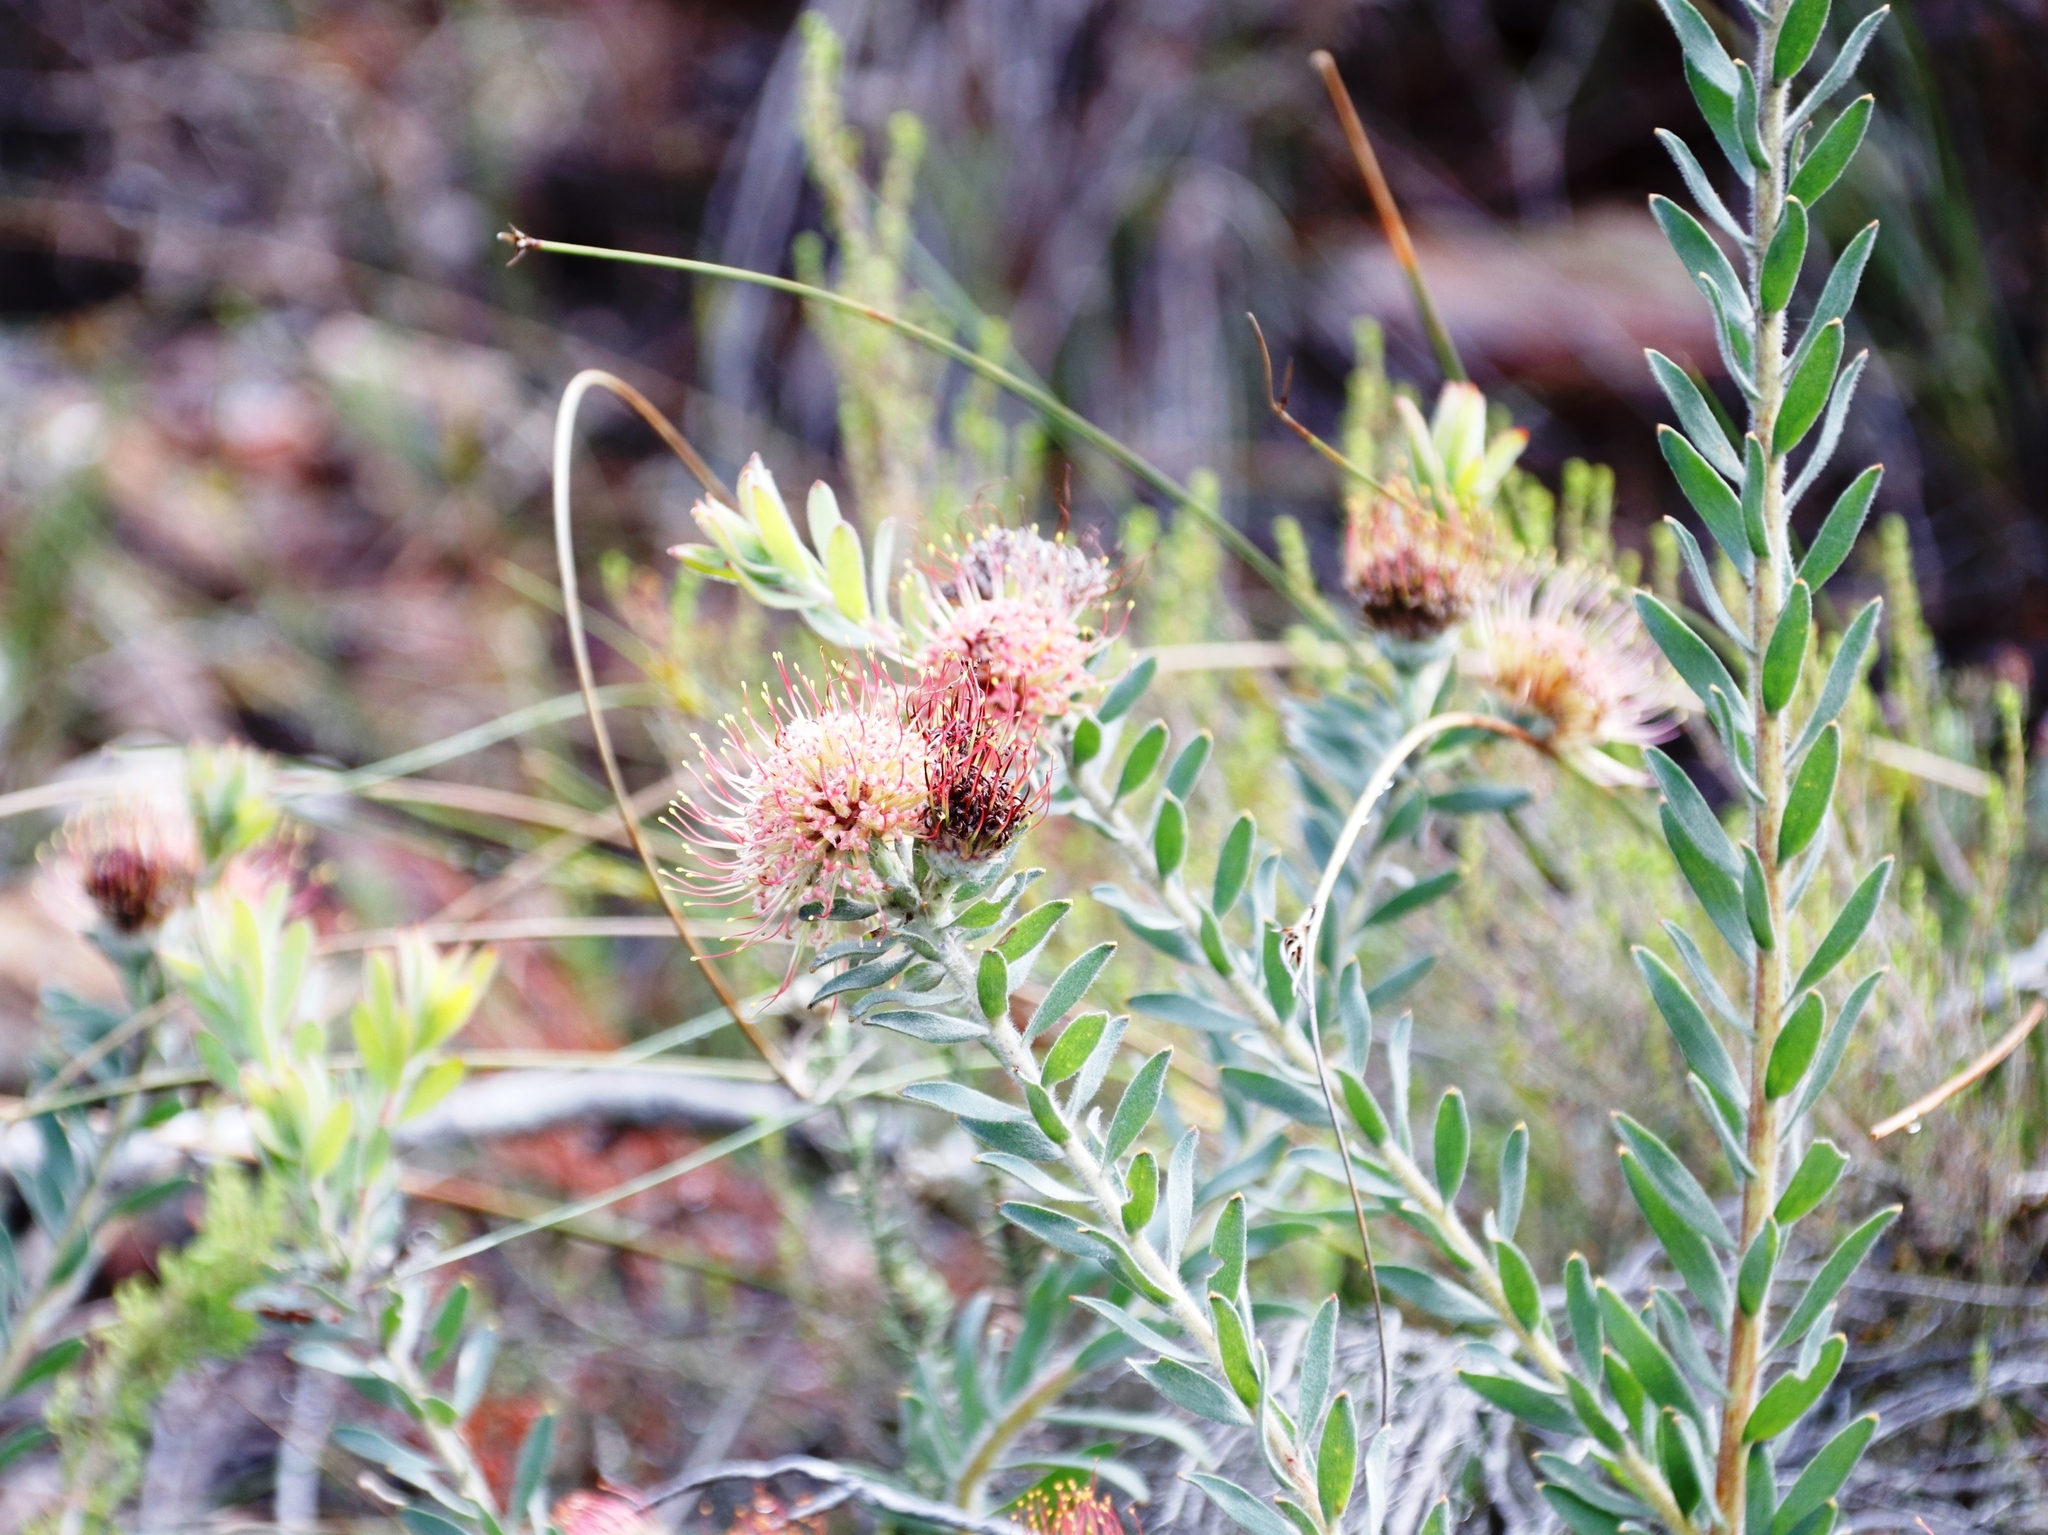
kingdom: Plantae
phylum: Tracheophyta
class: Magnoliopsida
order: Proteales
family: Proteaceae
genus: Leucospermum
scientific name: Leucospermum calligerum
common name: Arid pincushion
